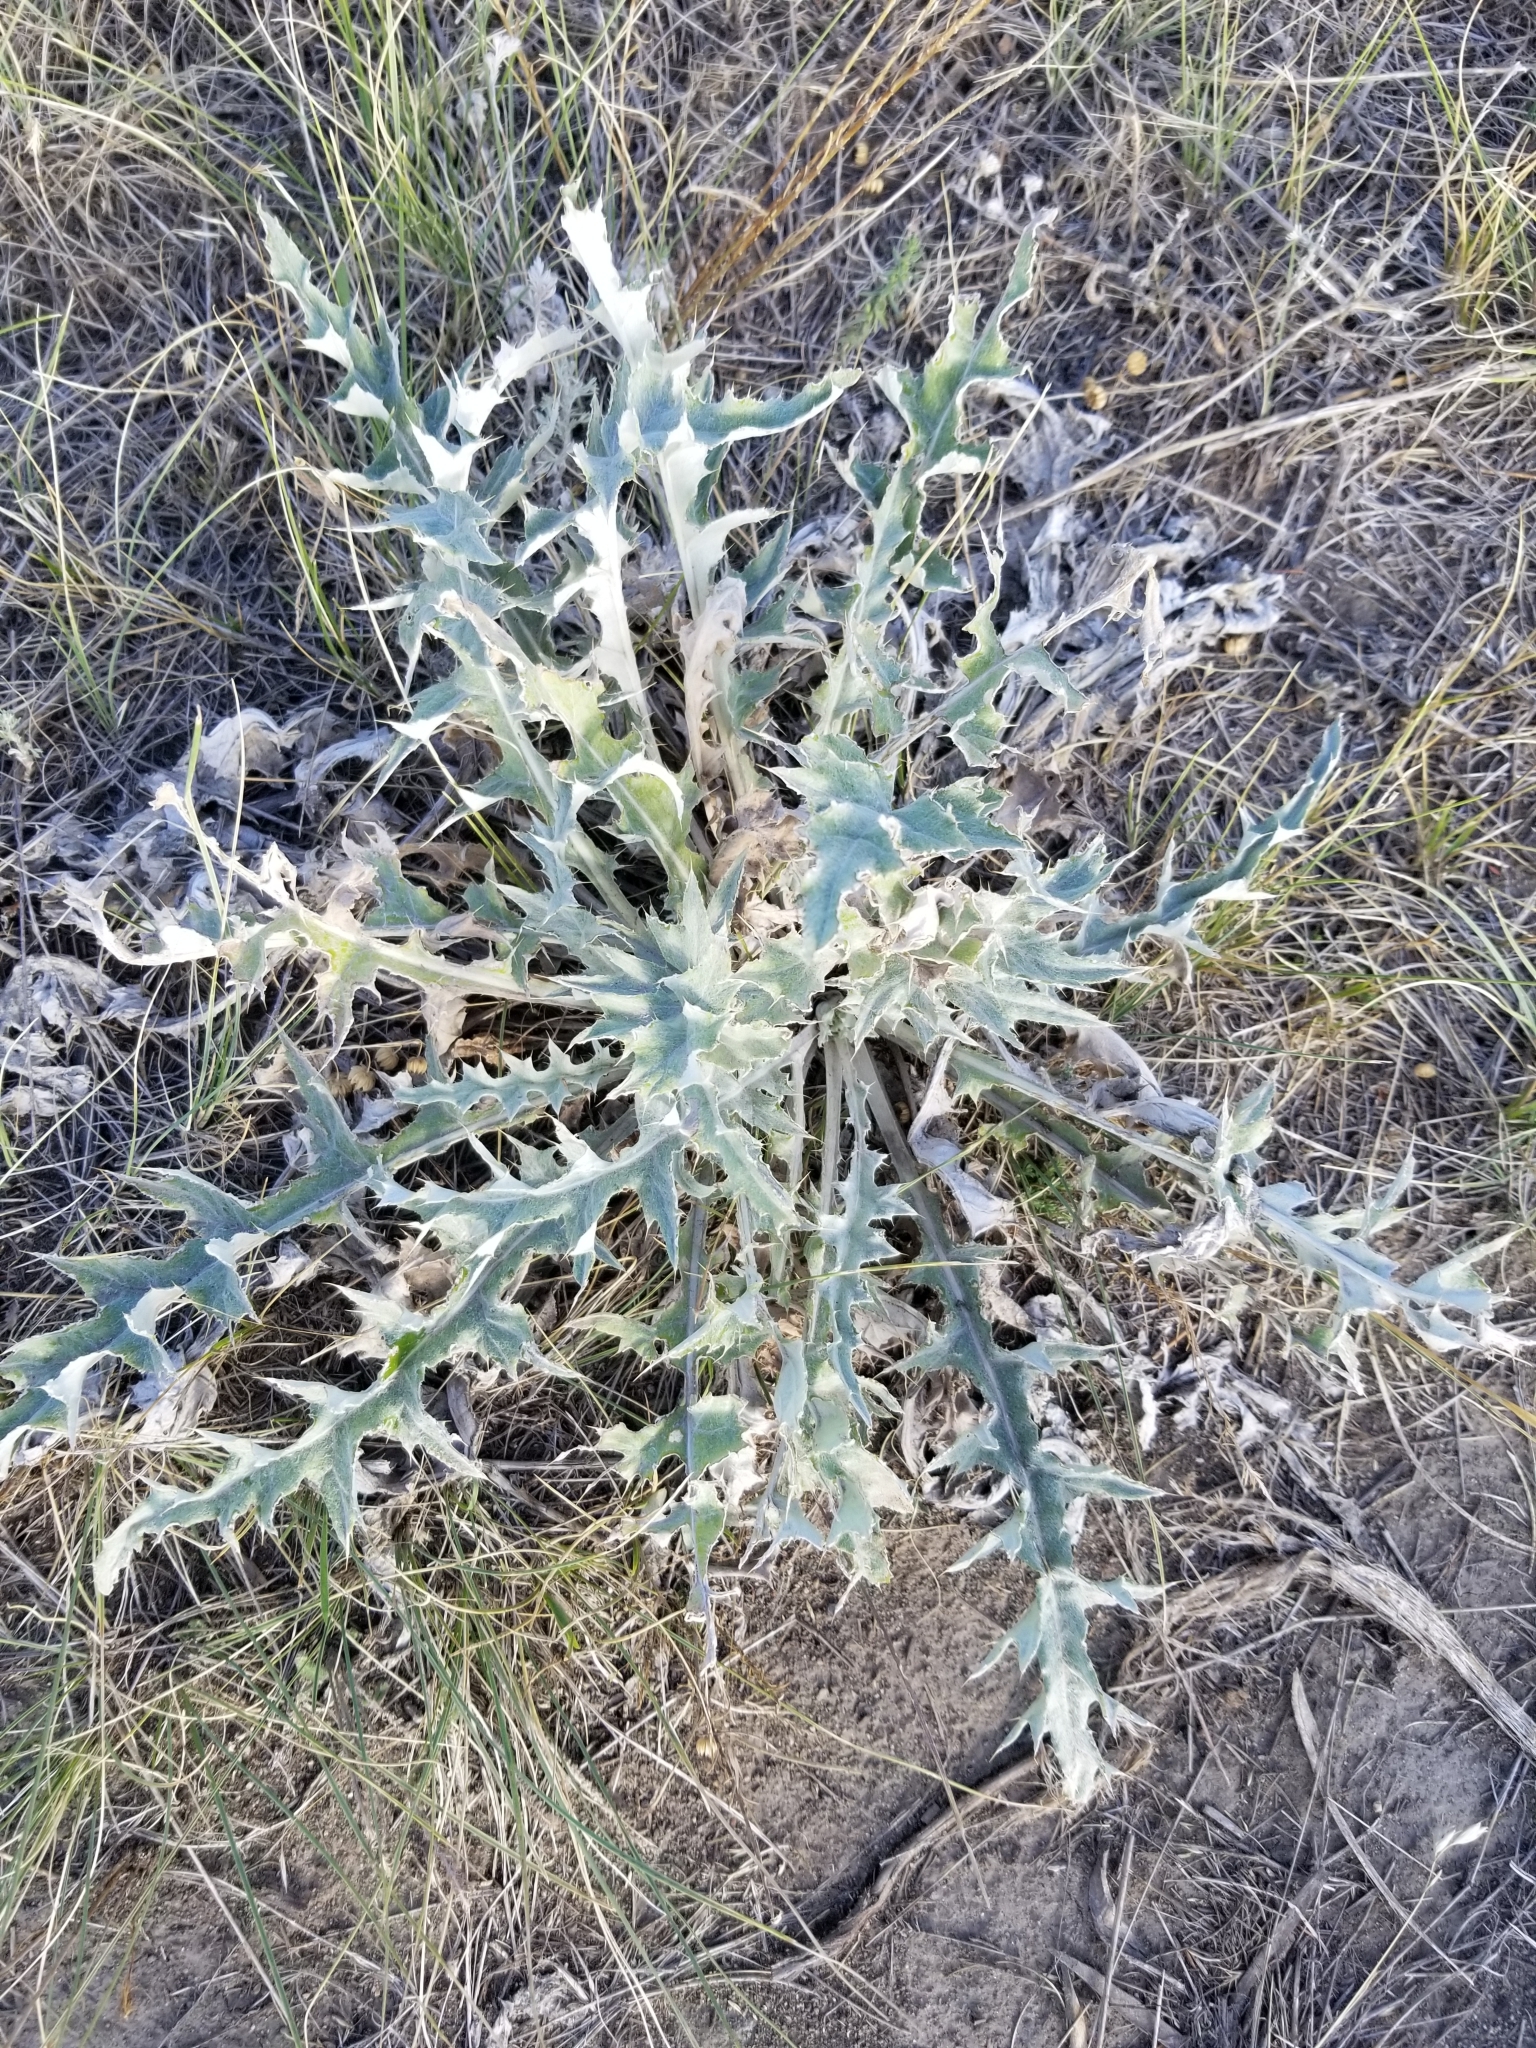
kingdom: Plantae
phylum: Tracheophyta
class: Magnoliopsida
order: Asterales
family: Asteraceae
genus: Cirsium
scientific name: Cirsium undulatum
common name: Pasture thistle
